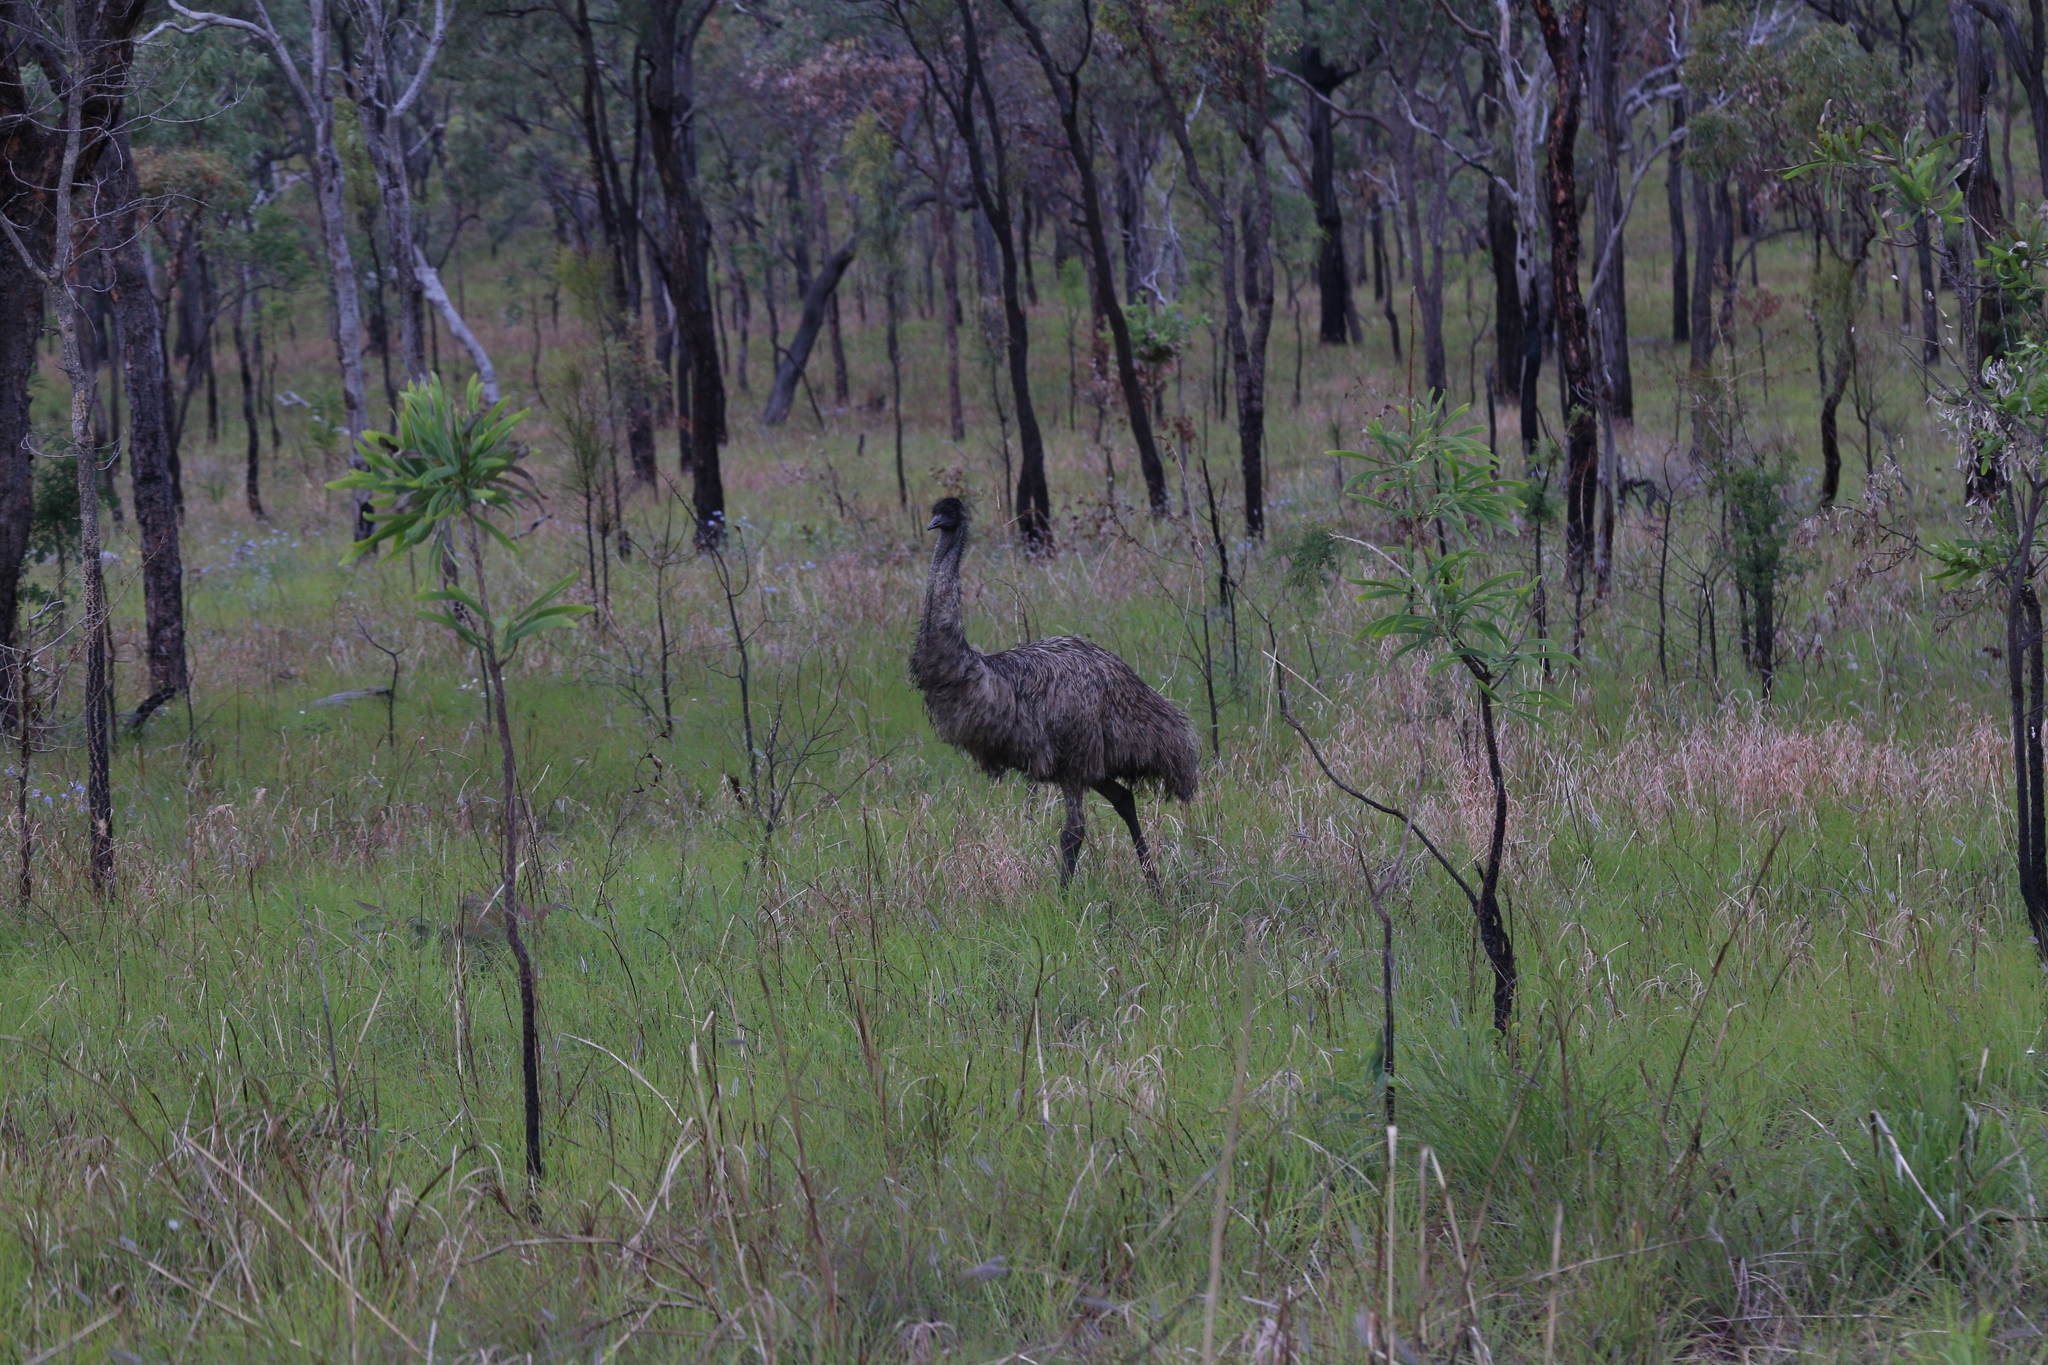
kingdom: Animalia
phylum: Chordata
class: Aves
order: Casuariiformes
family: Dromaiidae
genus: Dromaius
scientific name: Dromaius novaehollandiae
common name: Emu
